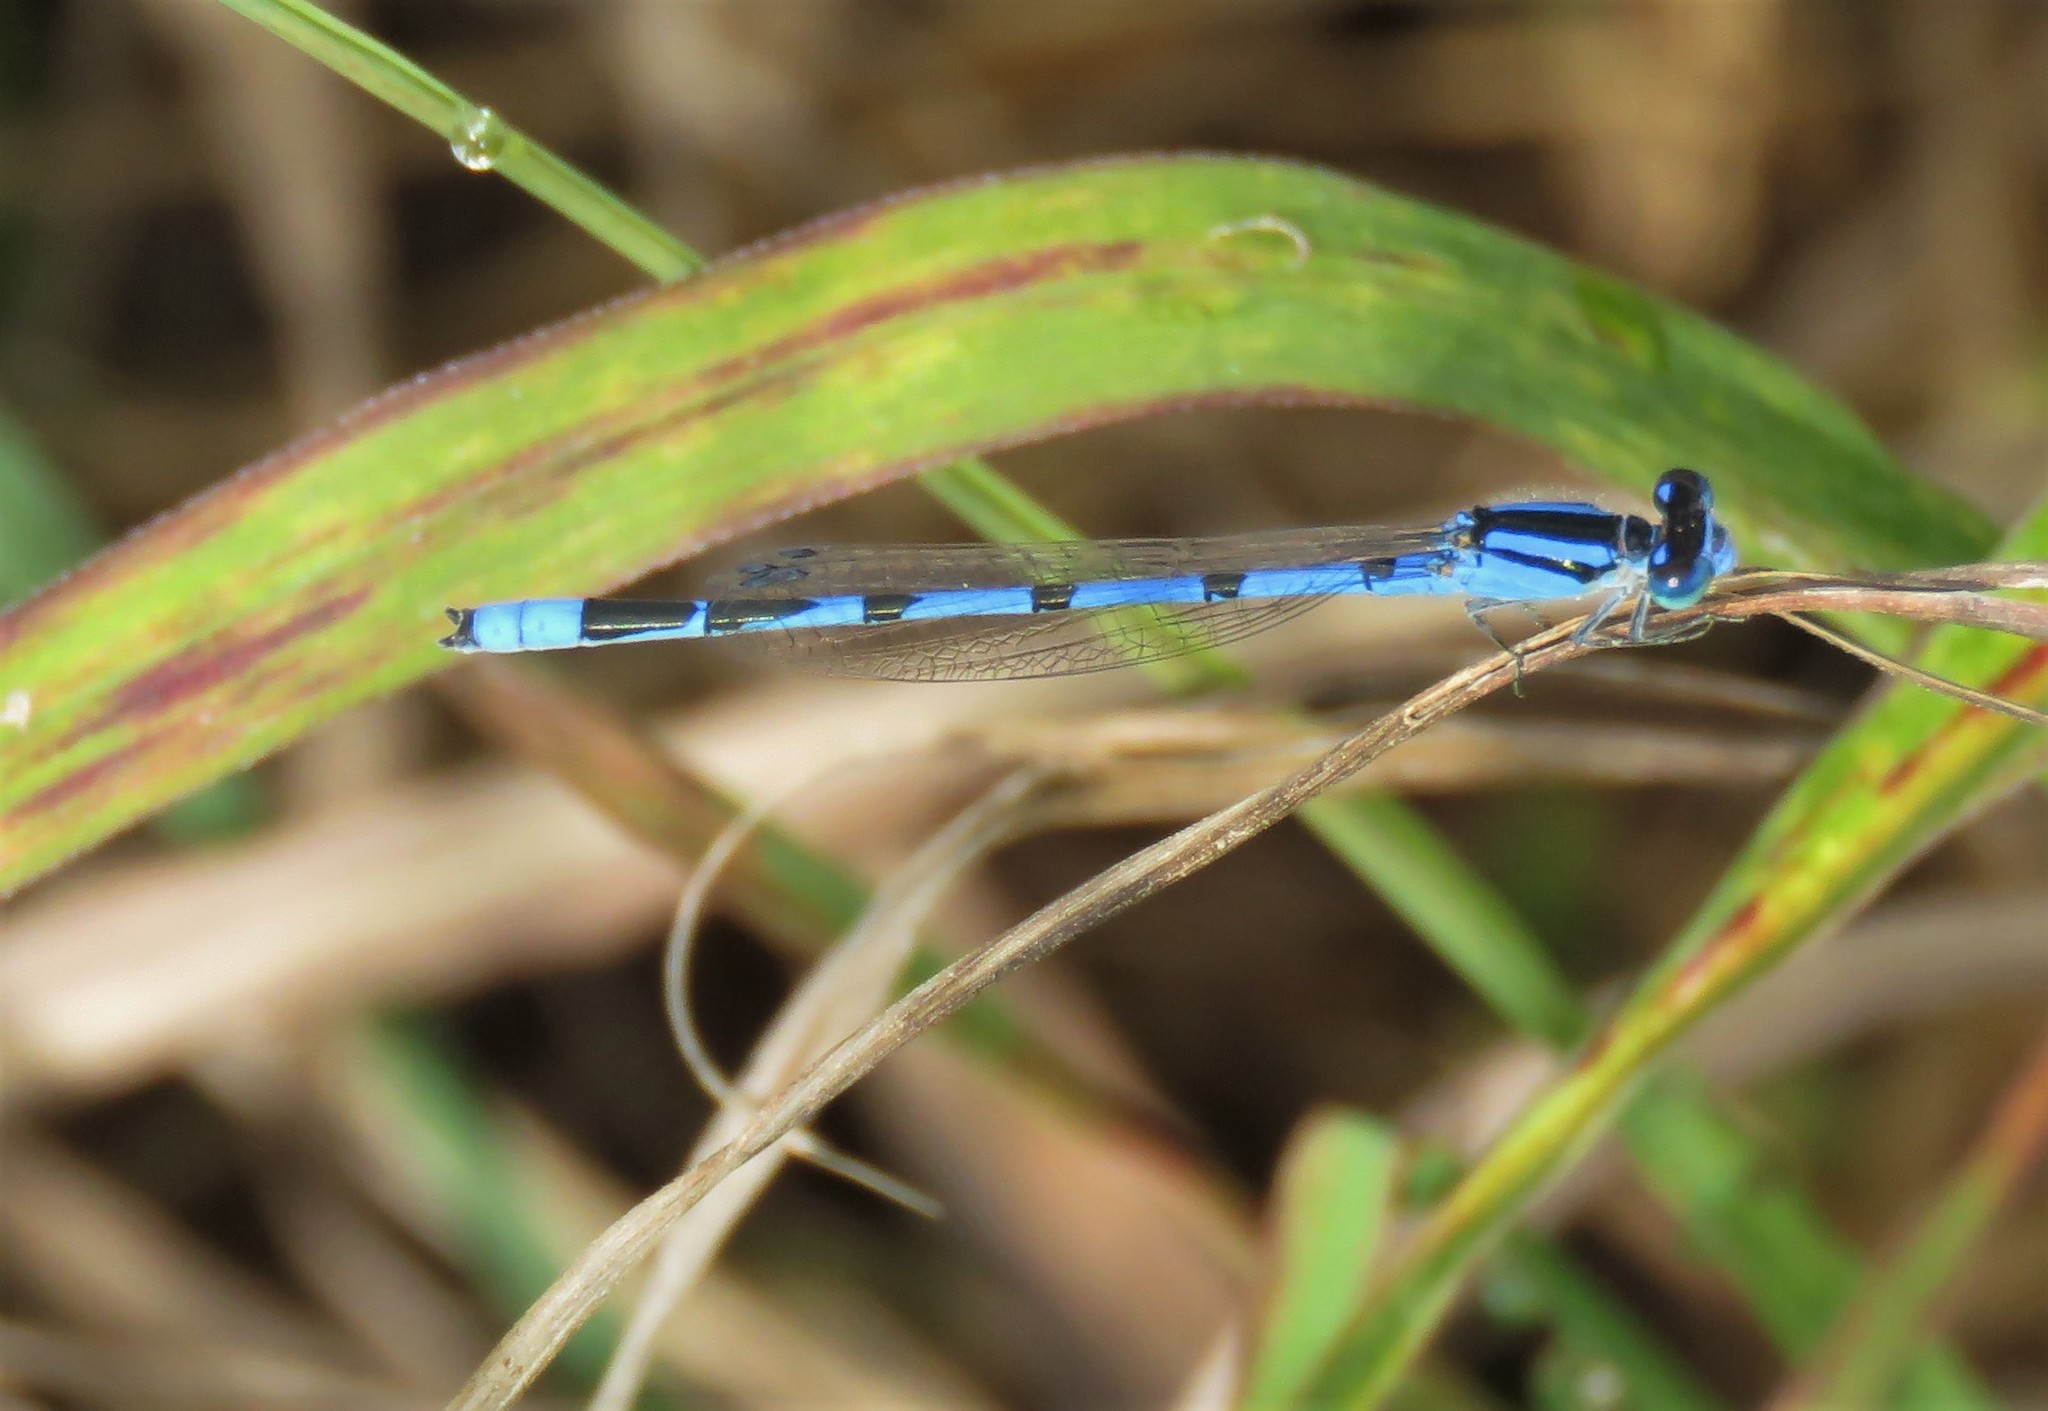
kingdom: Animalia
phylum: Arthropoda
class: Insecta
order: Odonata
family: Coenagrionidae
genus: Enallagma
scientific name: Enallagma civile
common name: Damselfly
